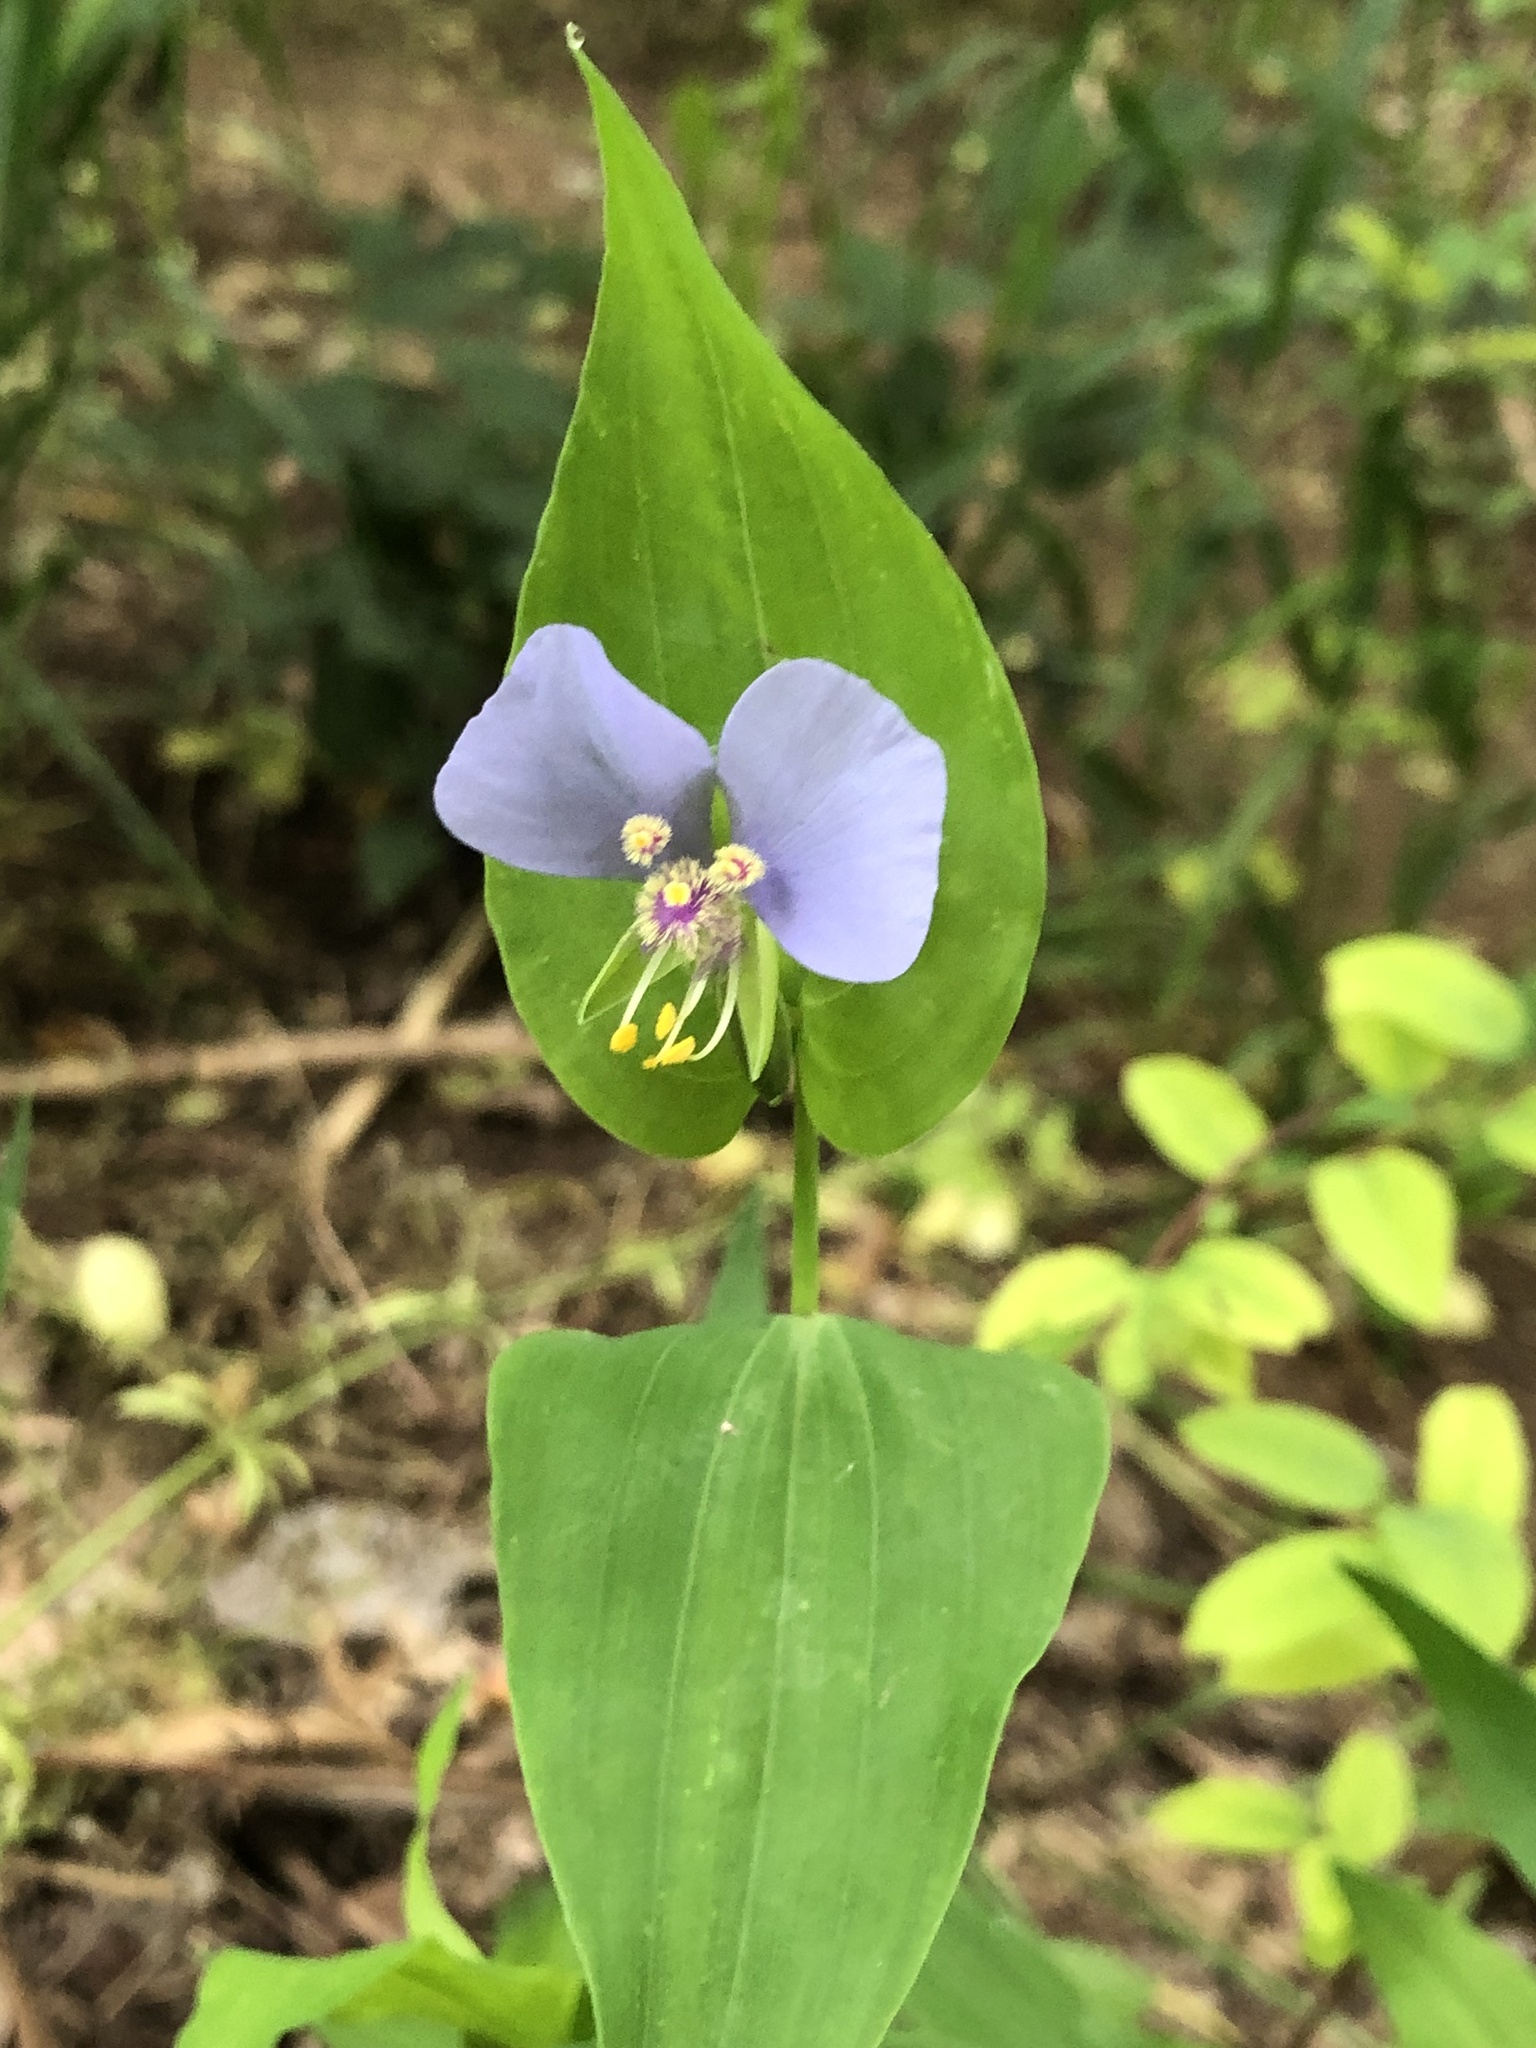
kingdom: Plantae
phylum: Tracheophyta
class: Liliopsida
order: Commelinales
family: Commelinaceae
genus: Tinantia
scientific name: Tinantia anomala
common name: False dayflower
